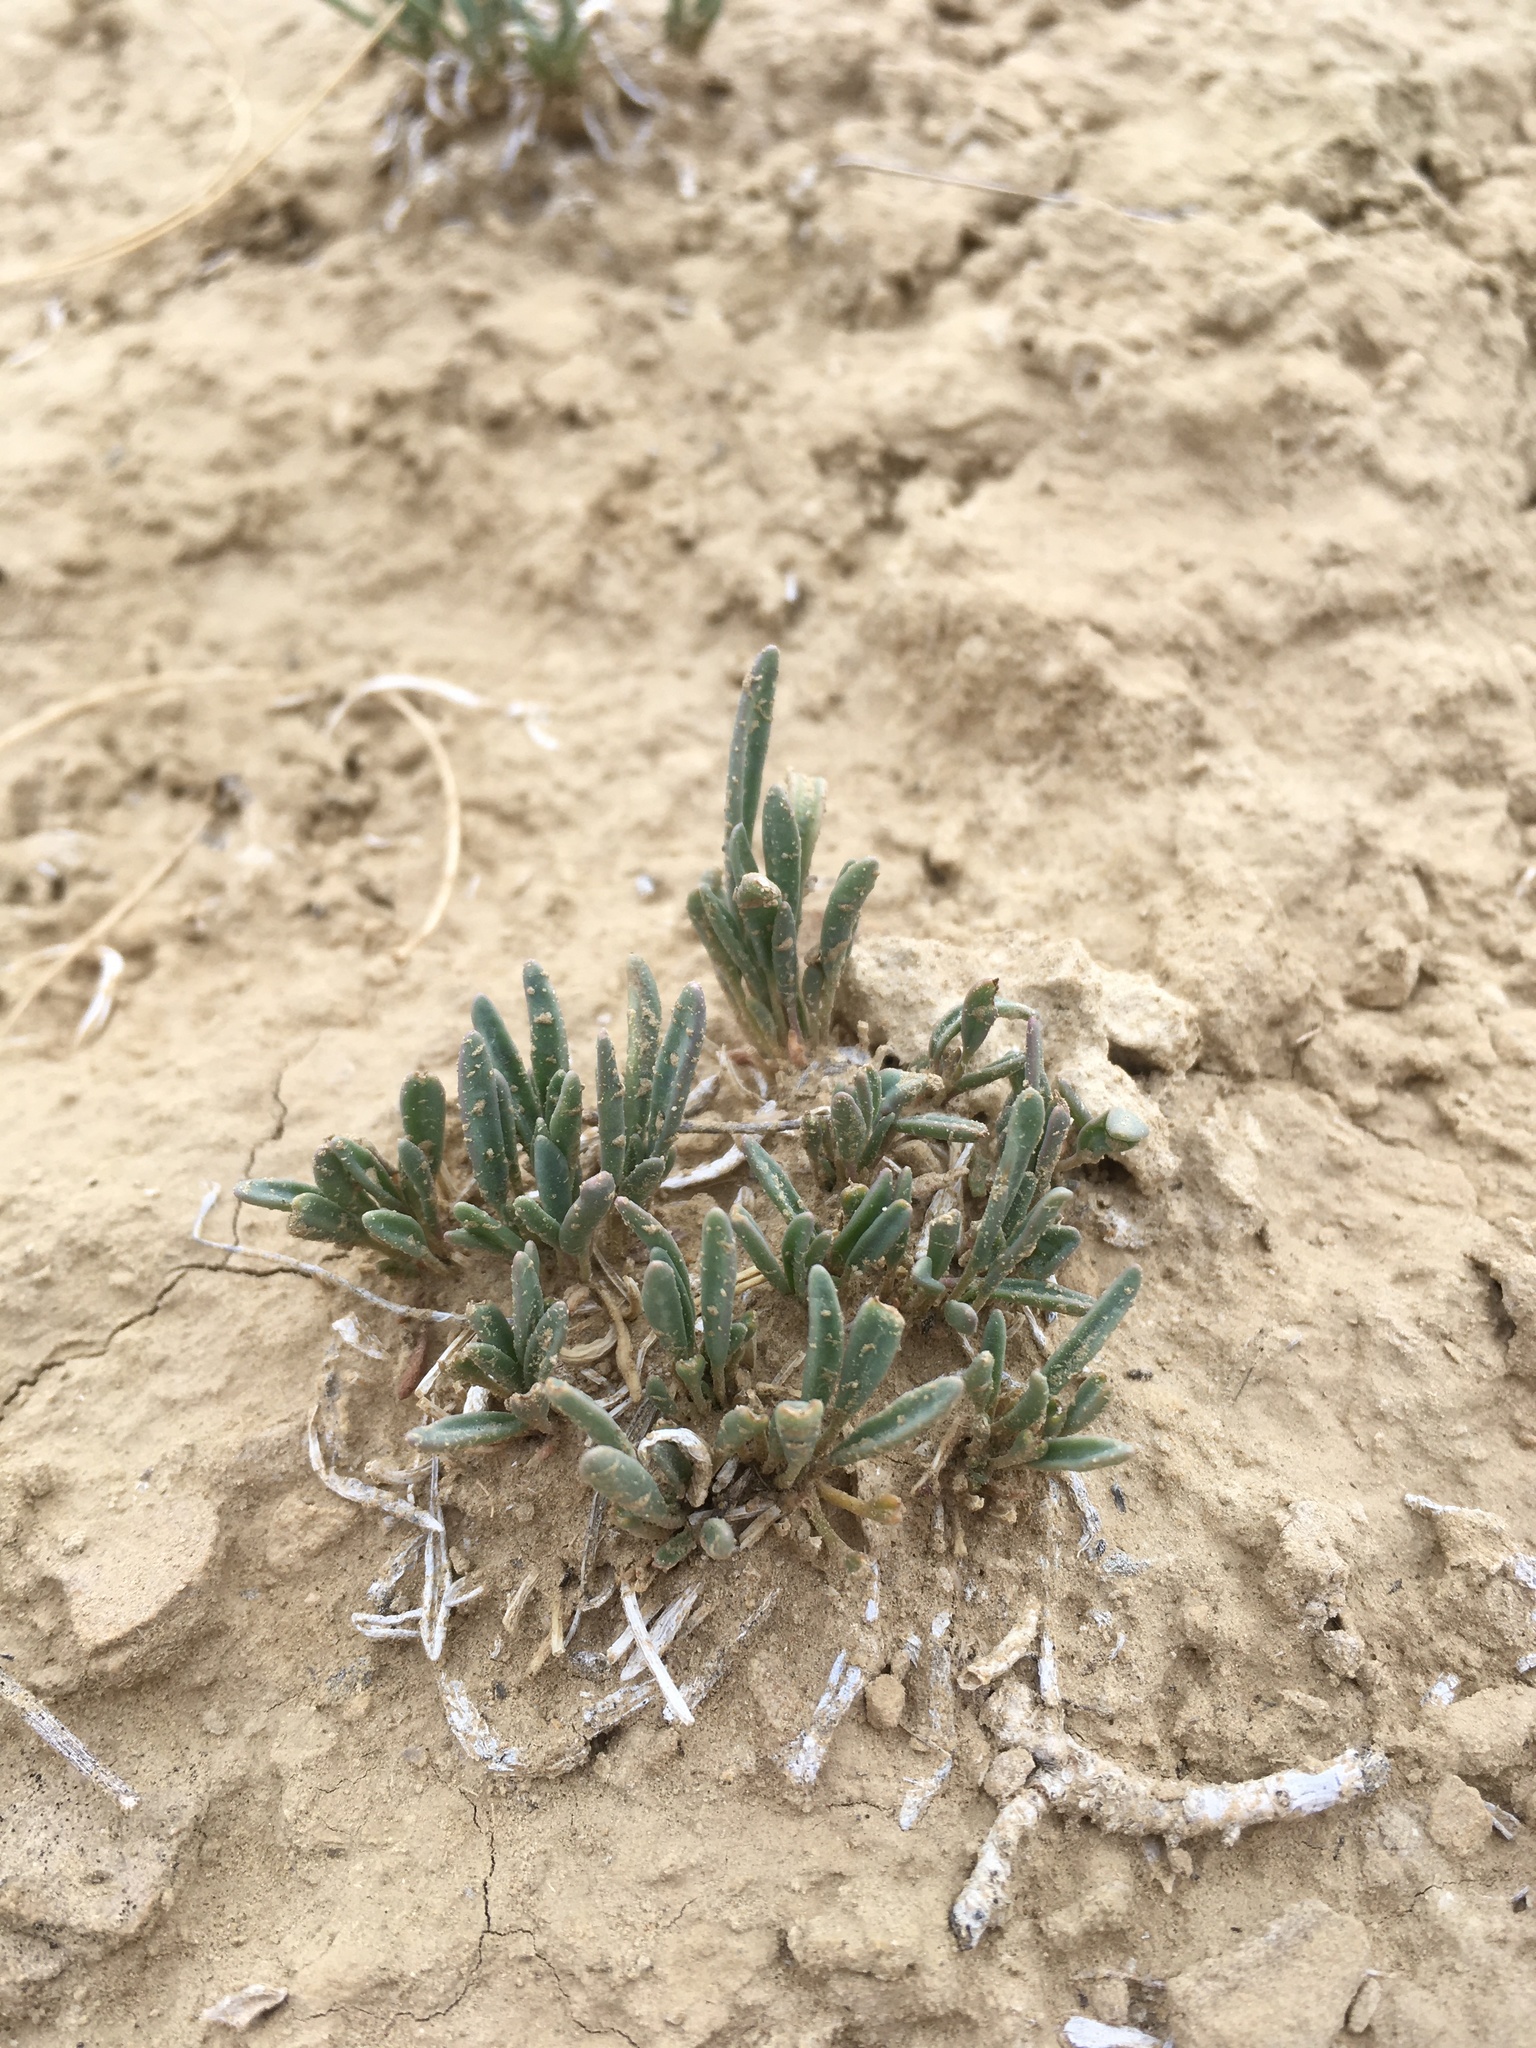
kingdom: Plantae
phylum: Tracheophyta
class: Magnoliopsida
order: Caryophyllales
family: Nyctaginaceae
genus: Abronia
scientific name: Abronia bigelovii
